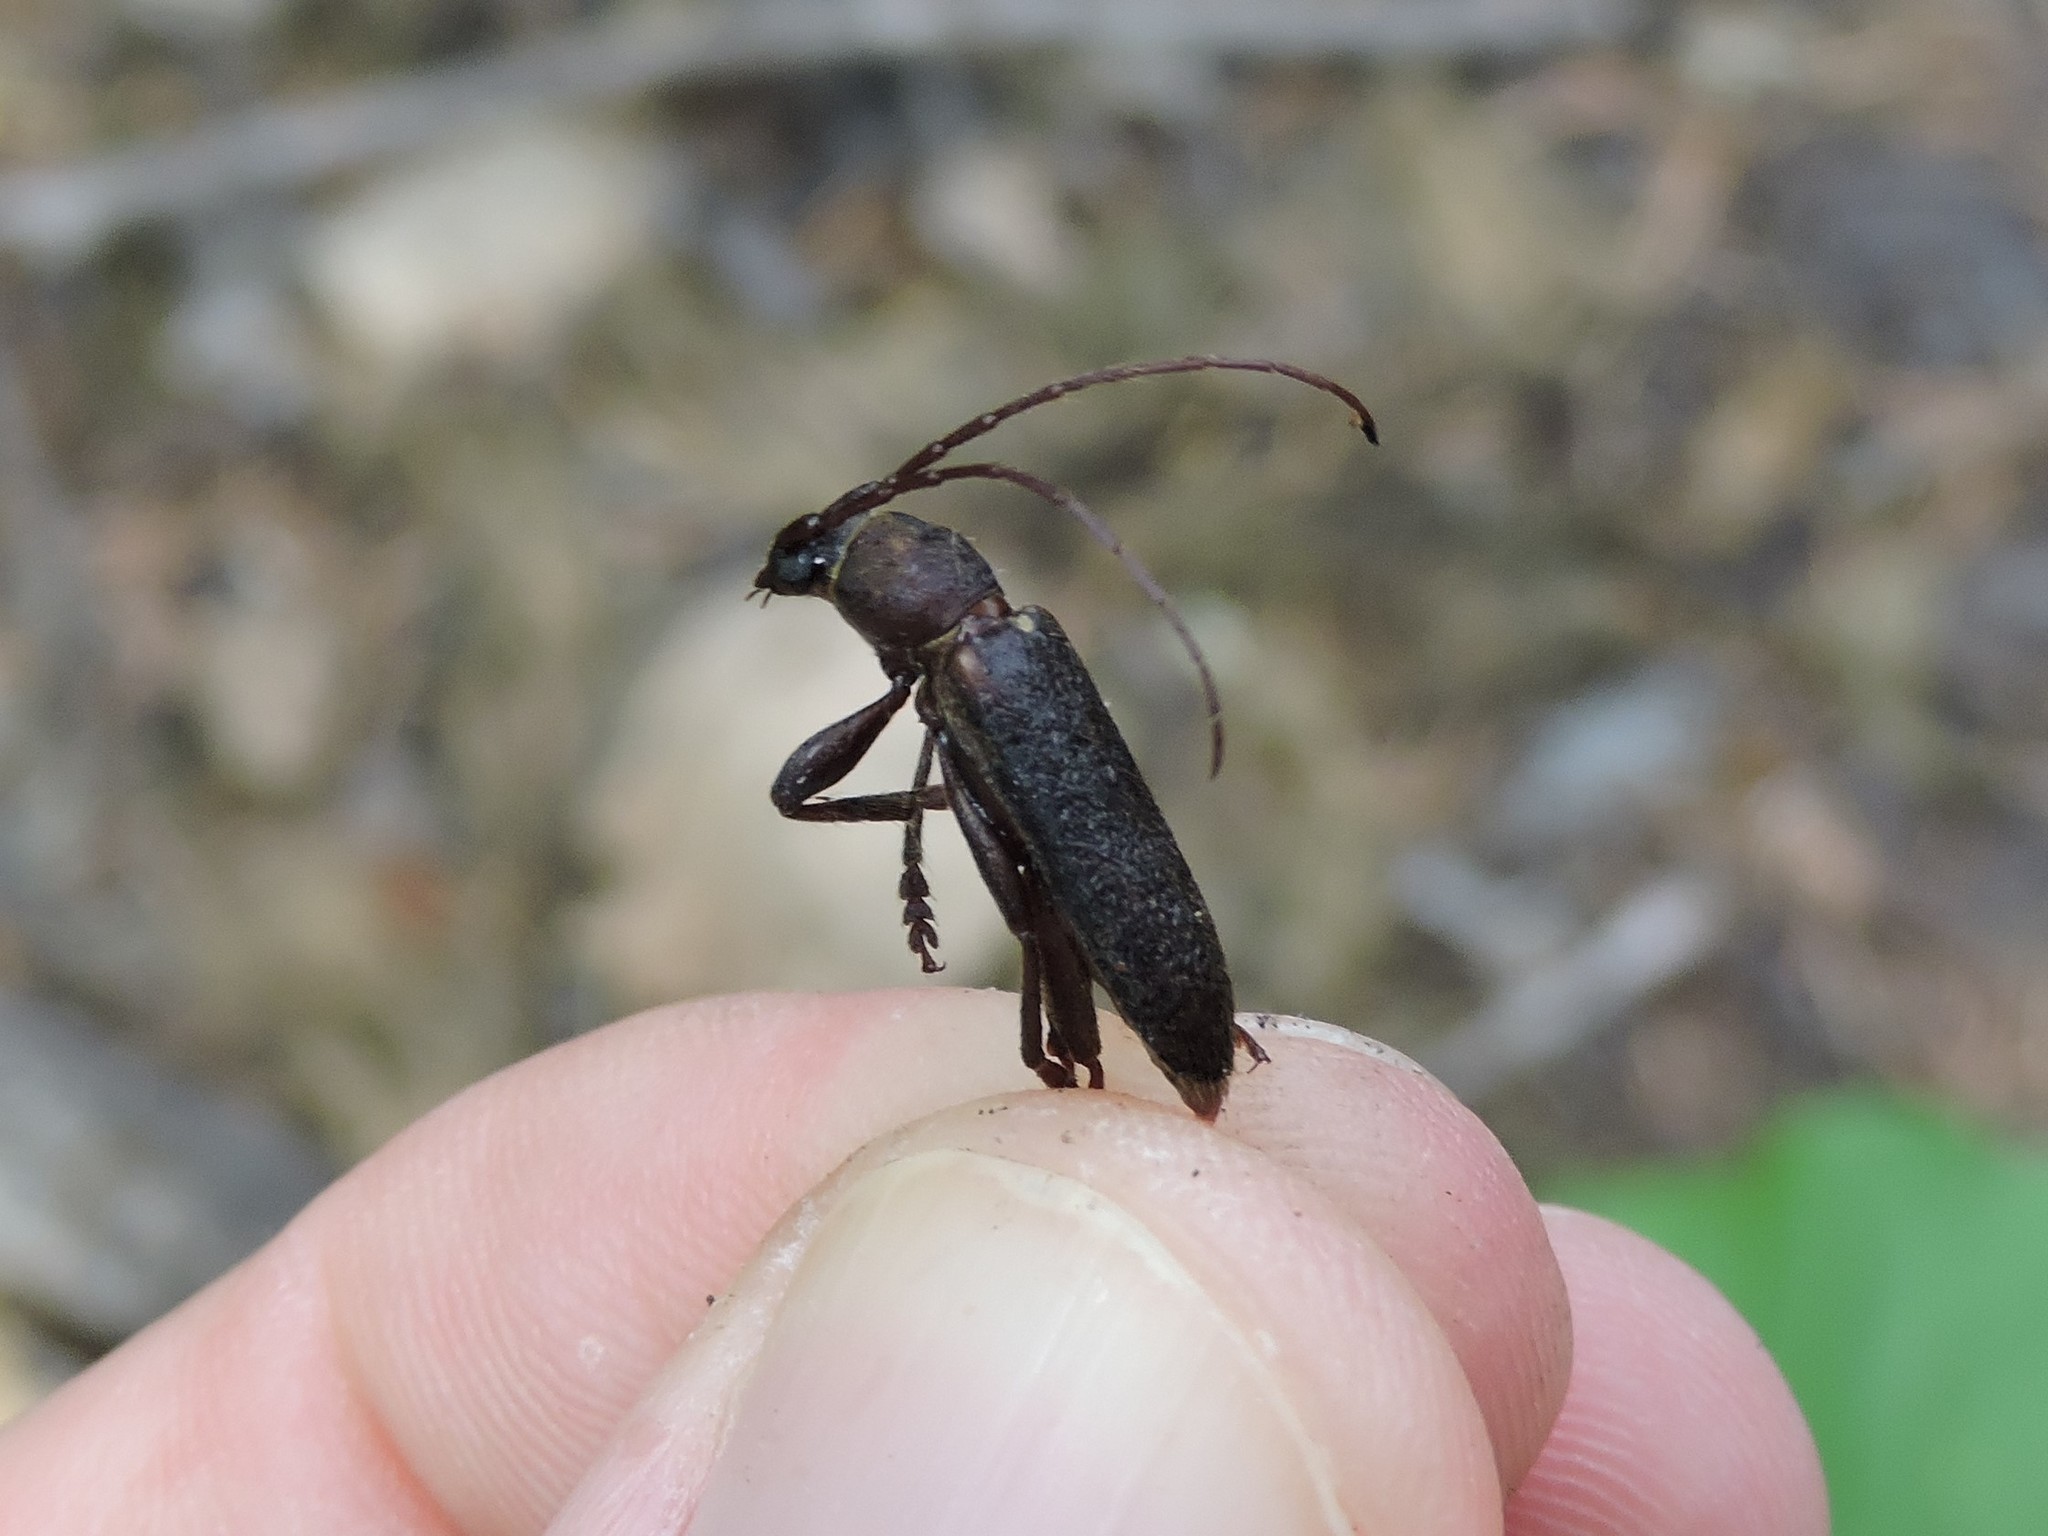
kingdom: Animalia
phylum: Arthropoda
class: Insecta
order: Coleoptera
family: Cerambycidae
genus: Trichoferus
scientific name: Trichoferus campestris
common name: Velvet long horned beetle
